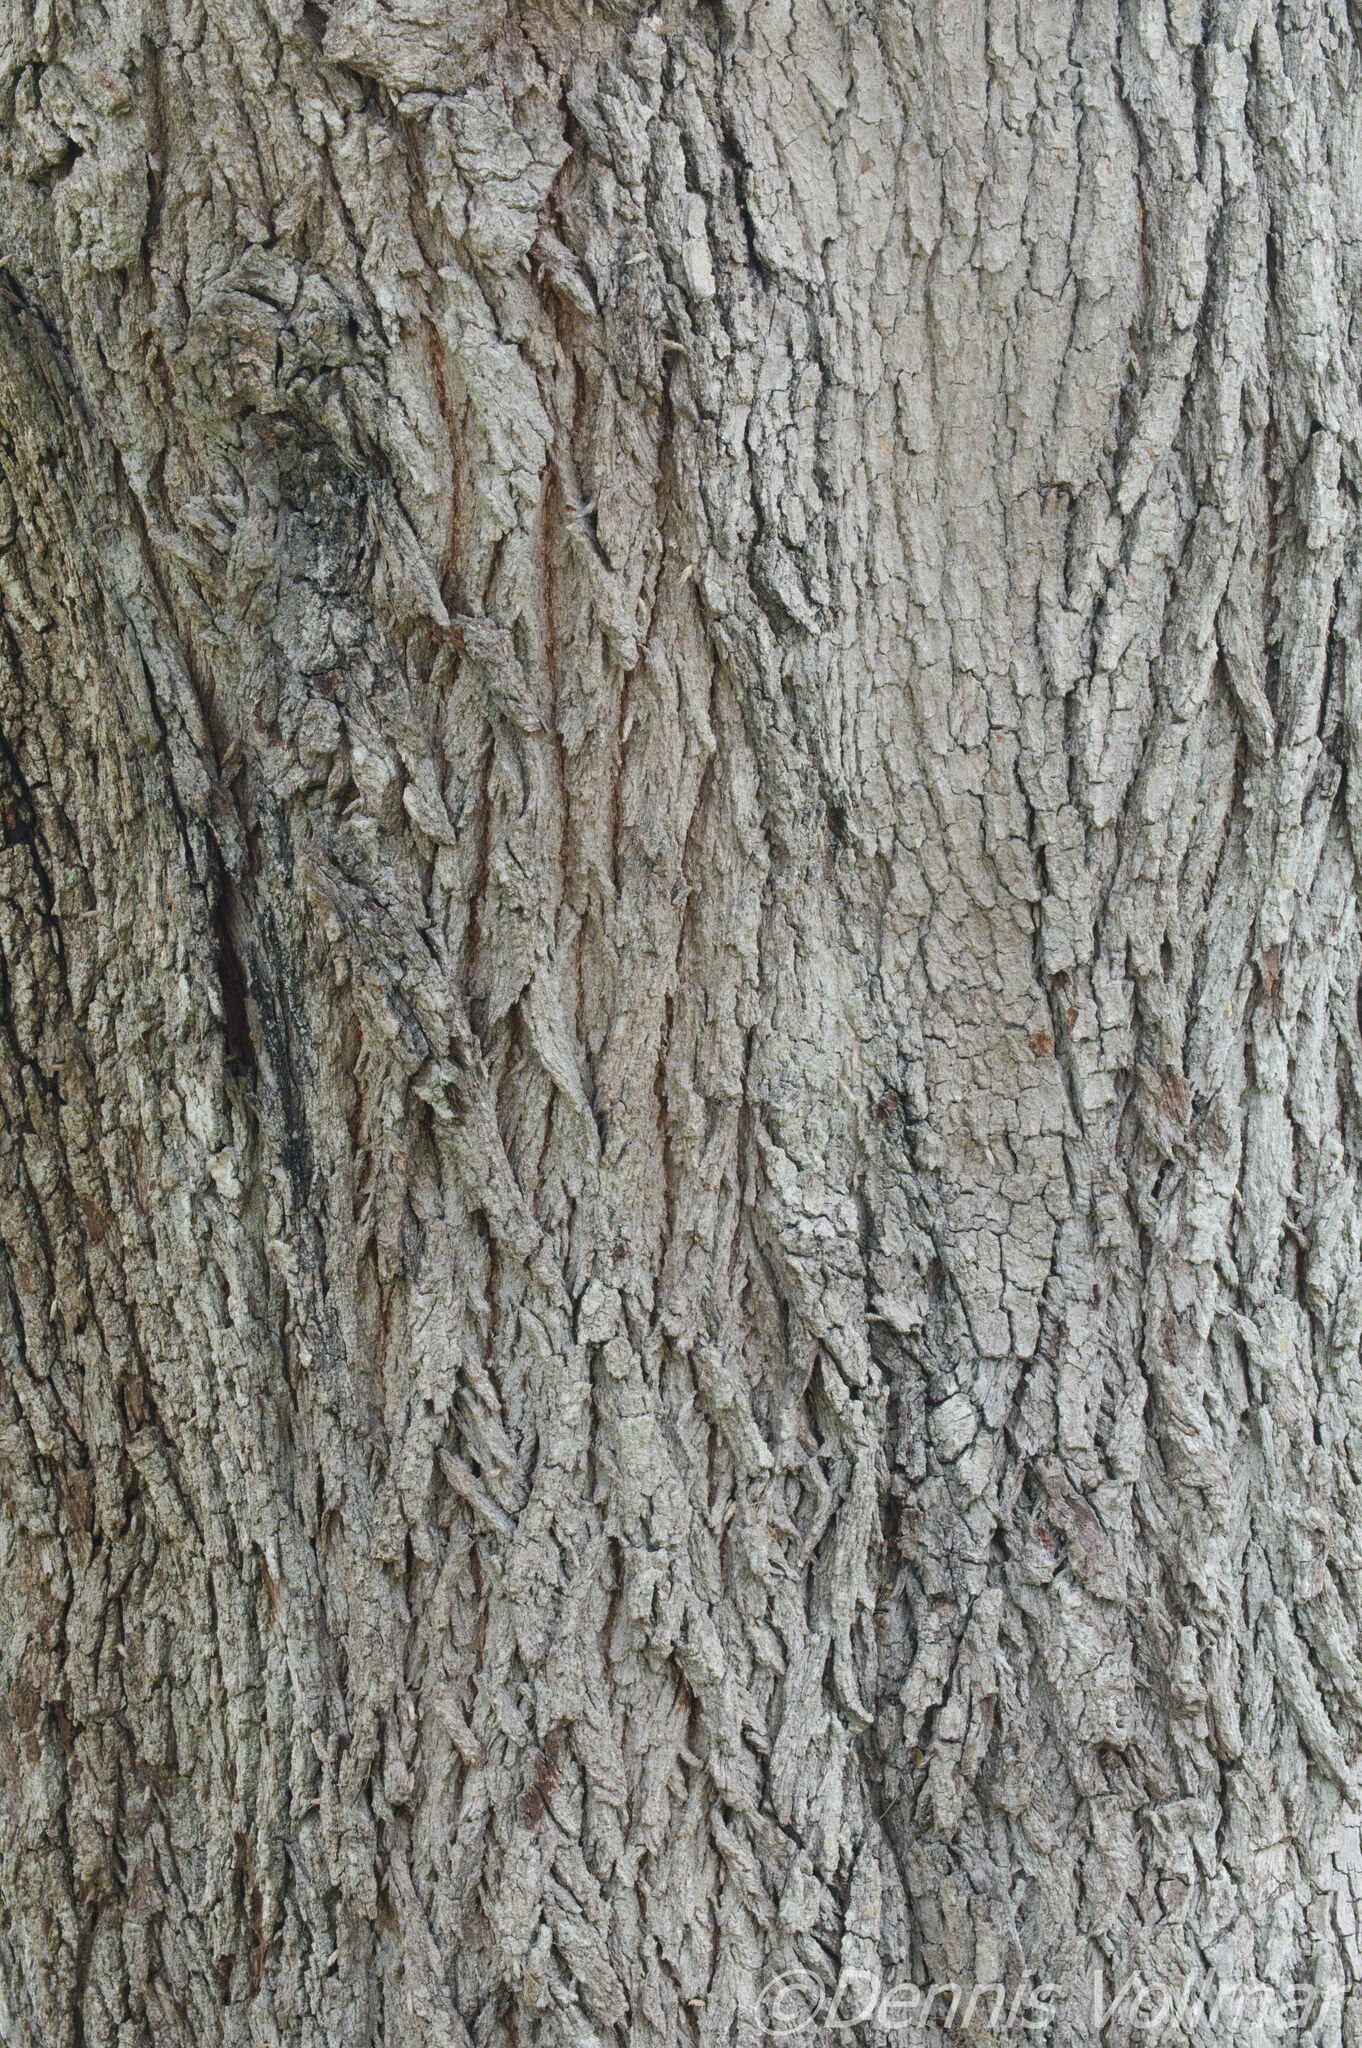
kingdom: Plantae
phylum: Tracheophyta
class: Magnoliopsida
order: Fagales
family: Fagaceae
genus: Quercus
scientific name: Quercus virginiana
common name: Southern live oak
